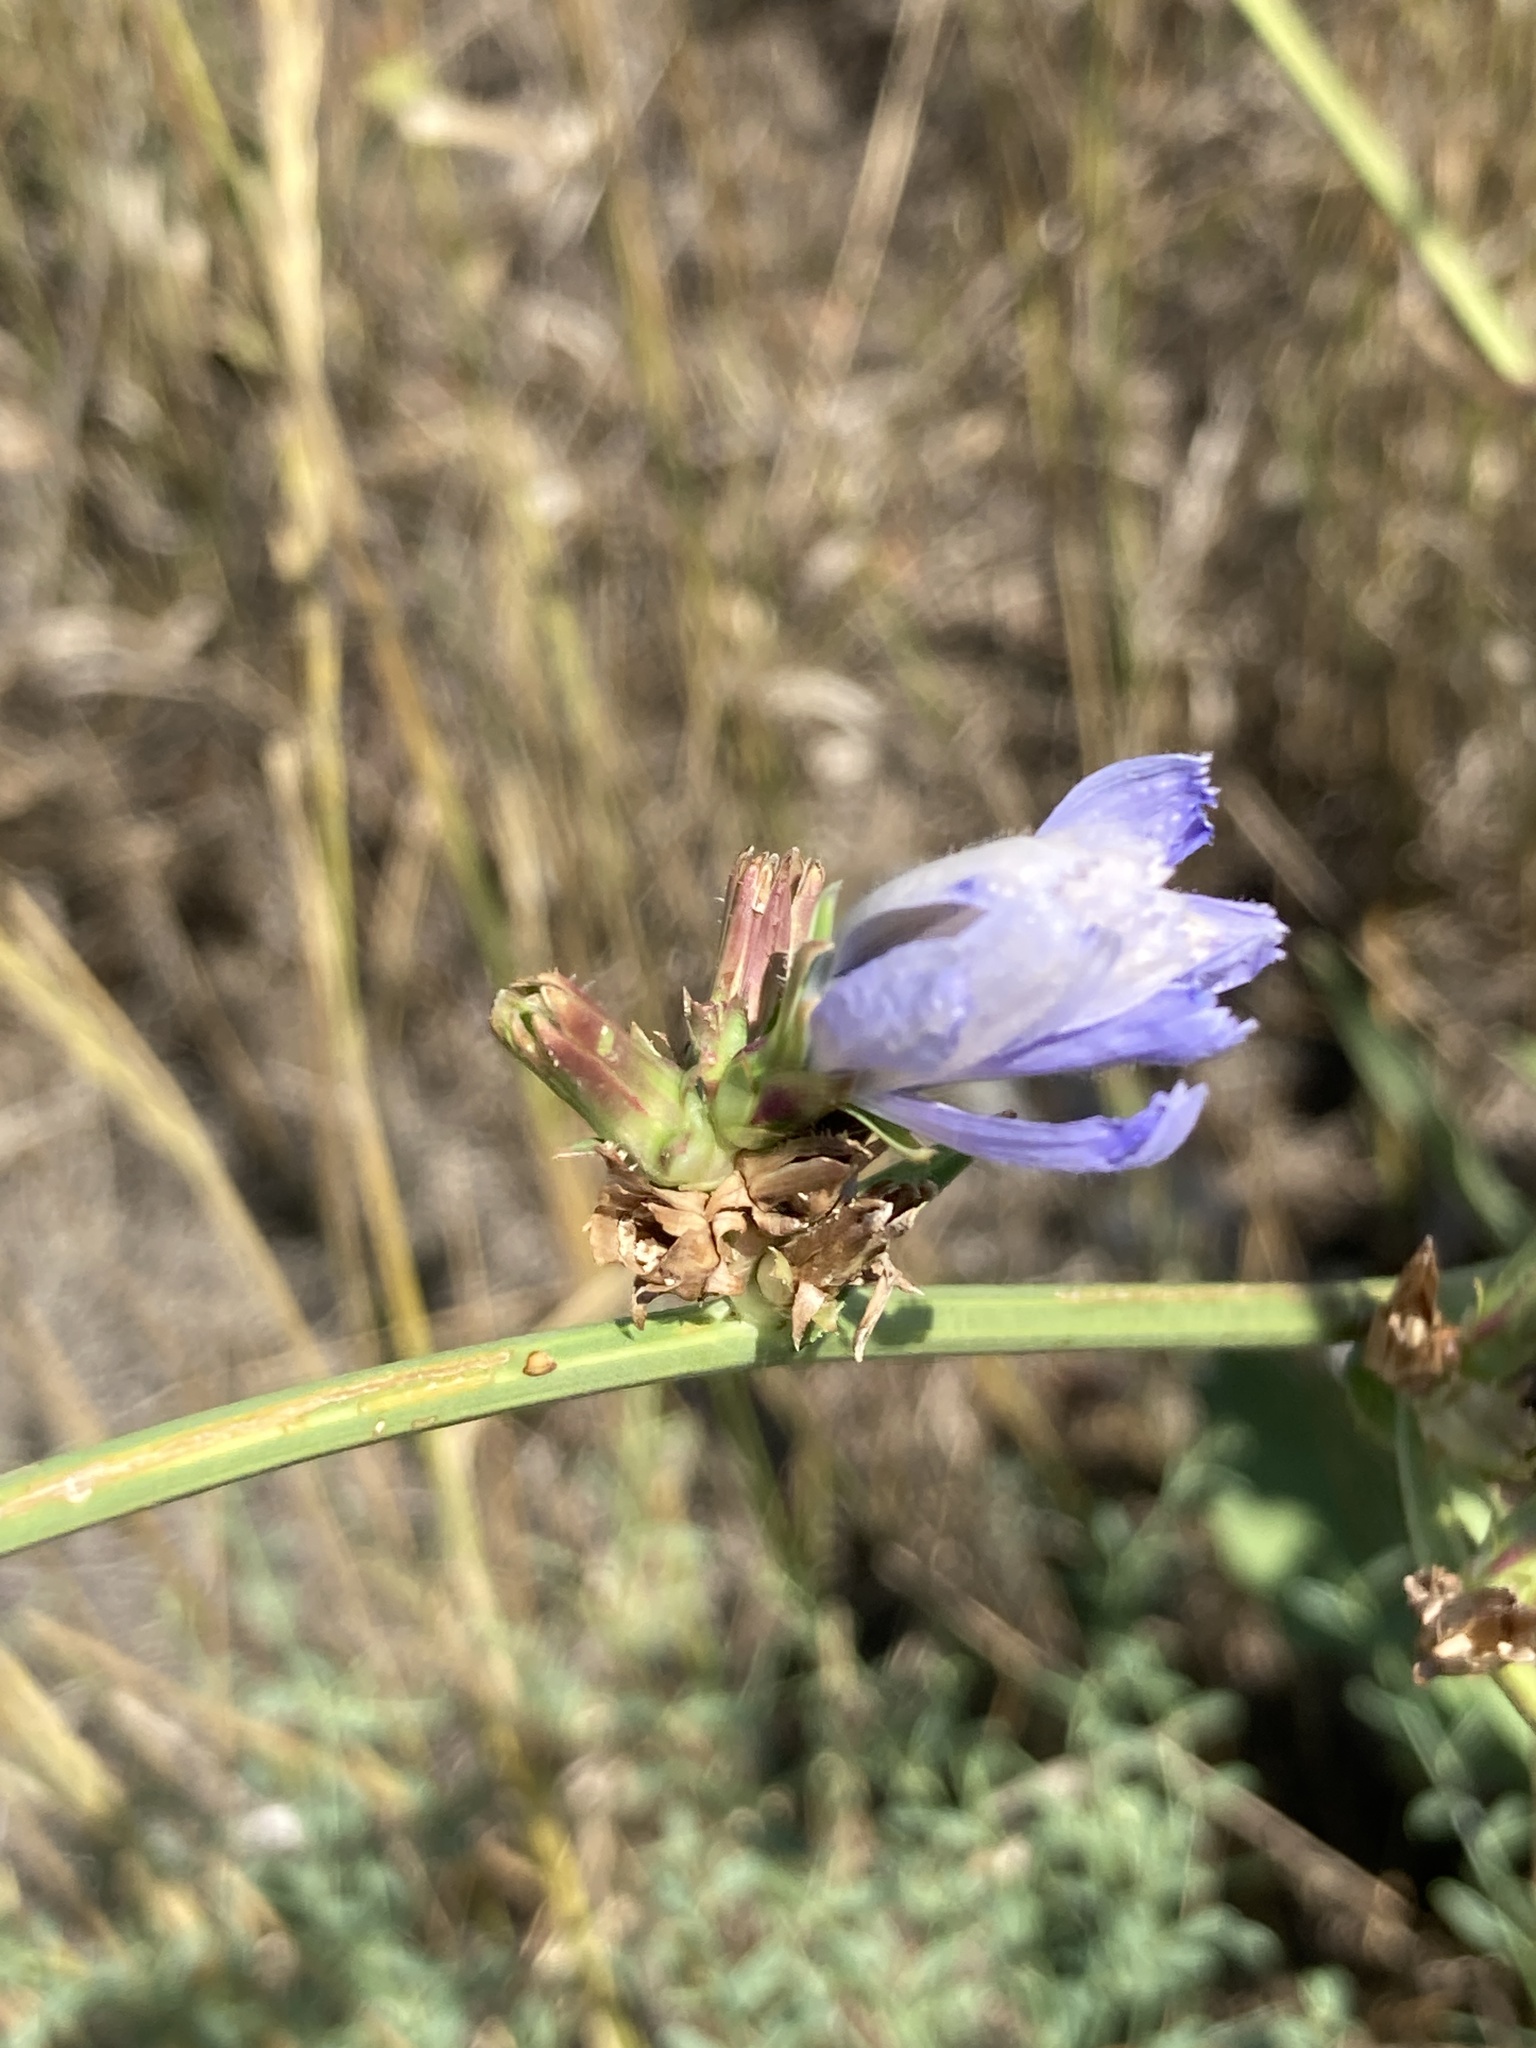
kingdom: Plantae
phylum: Tracheophyta
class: Magnoliopsida
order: Asterales
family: Asteraceae
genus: Cichorium
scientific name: Cichorium intybus
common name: Chicory
